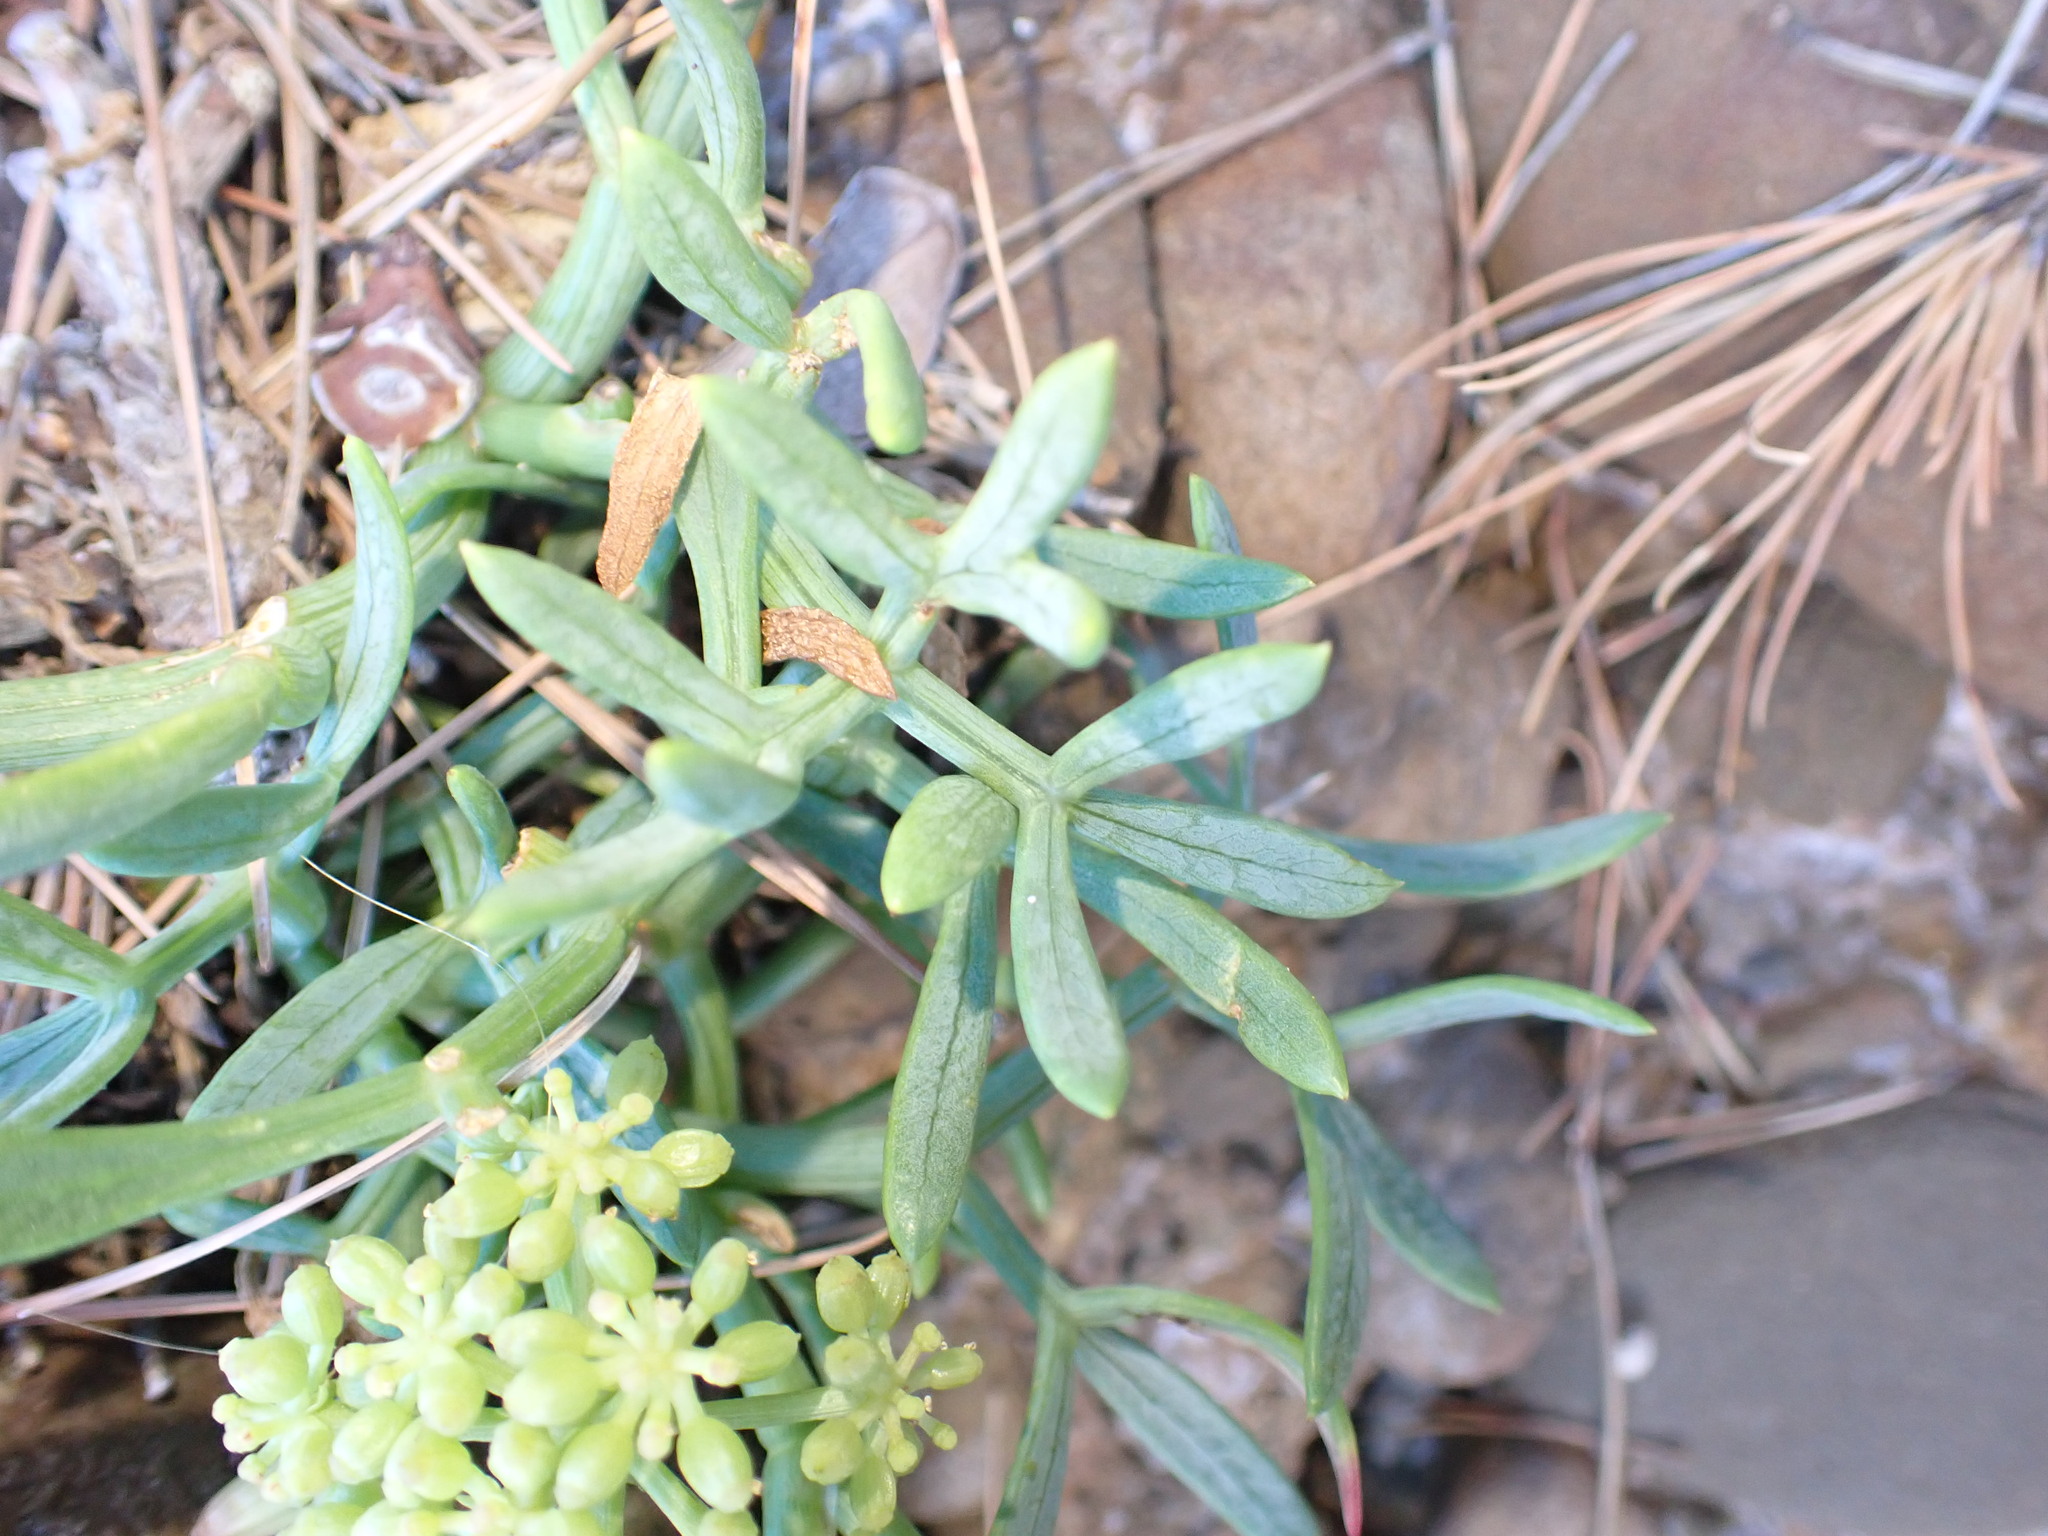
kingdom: Plantae
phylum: Tracheophyta
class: Magnoliopsida
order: Apiales
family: Apiaceae
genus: Crithmum
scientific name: Crithmum maritimum
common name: Rock samphire
